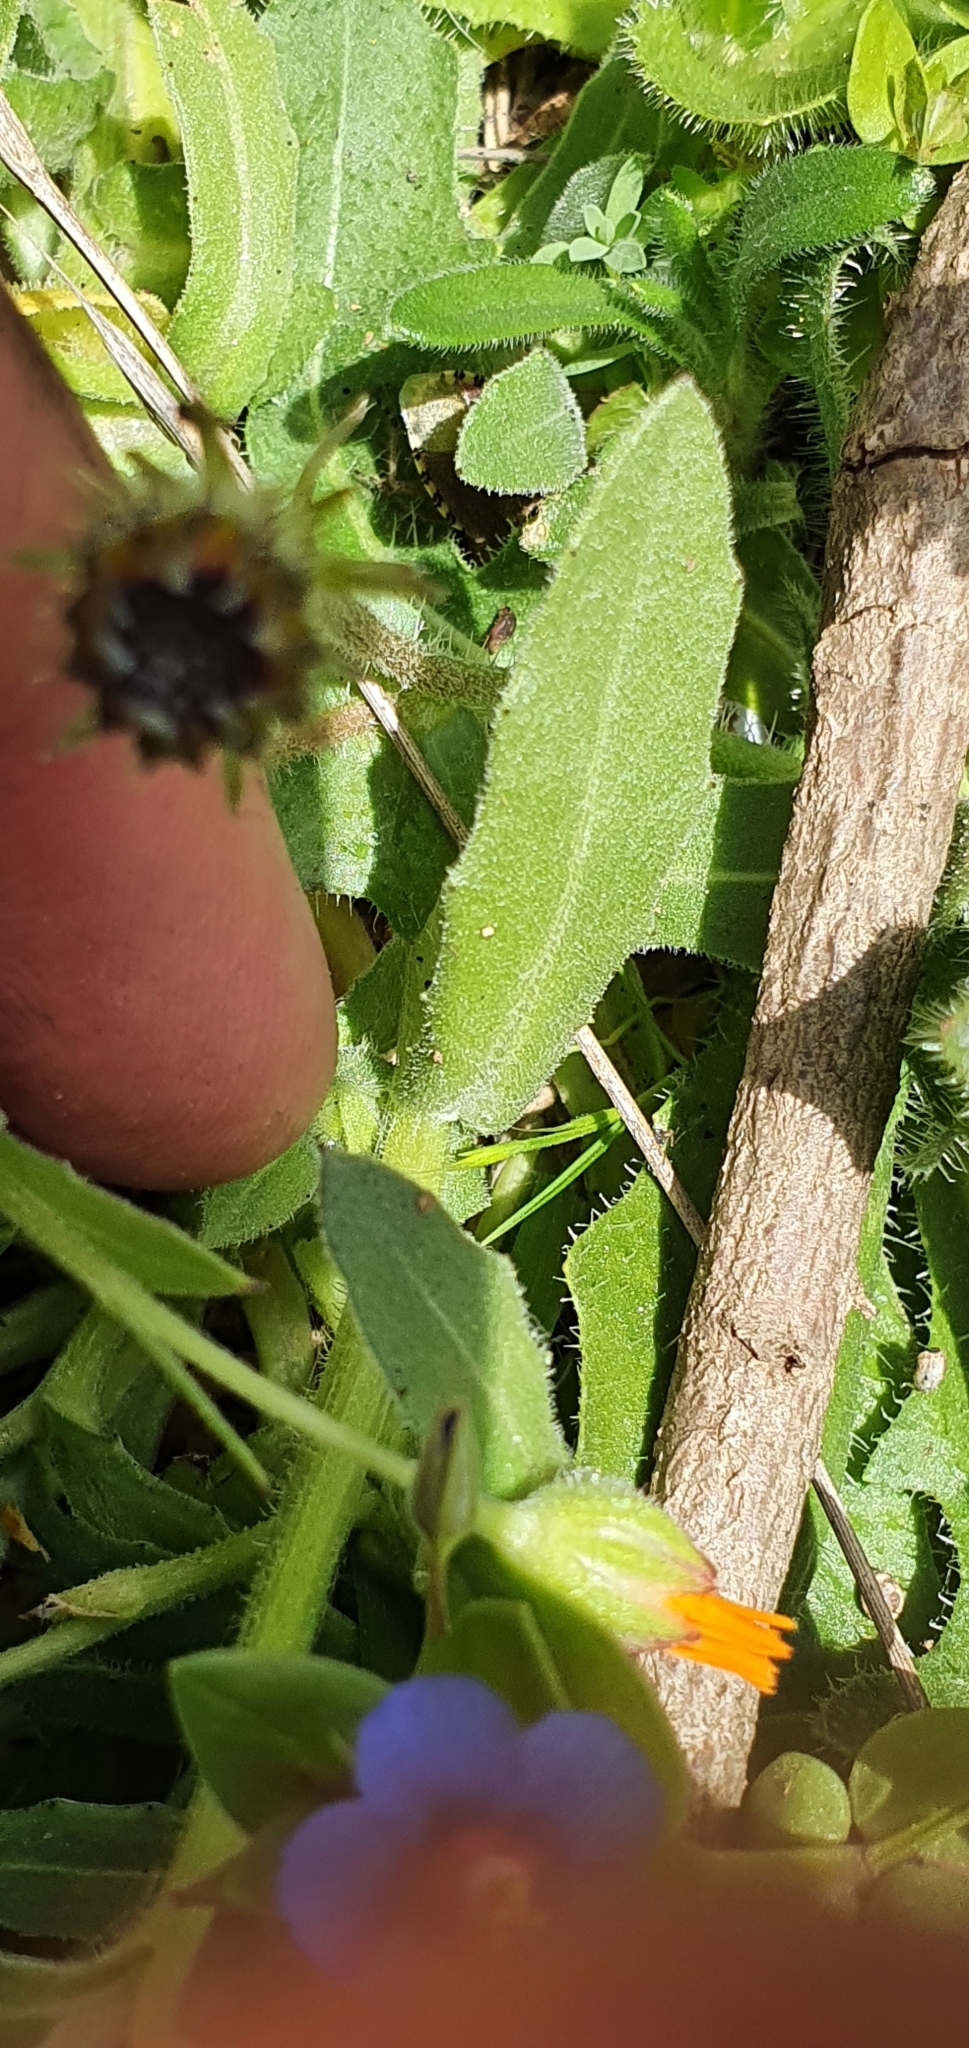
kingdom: Plantae
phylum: Tracheophyta
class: Magnoliopsida
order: Asterales
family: Asteraceae
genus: Calendula
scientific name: Calendula arvensis
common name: Field marigold
